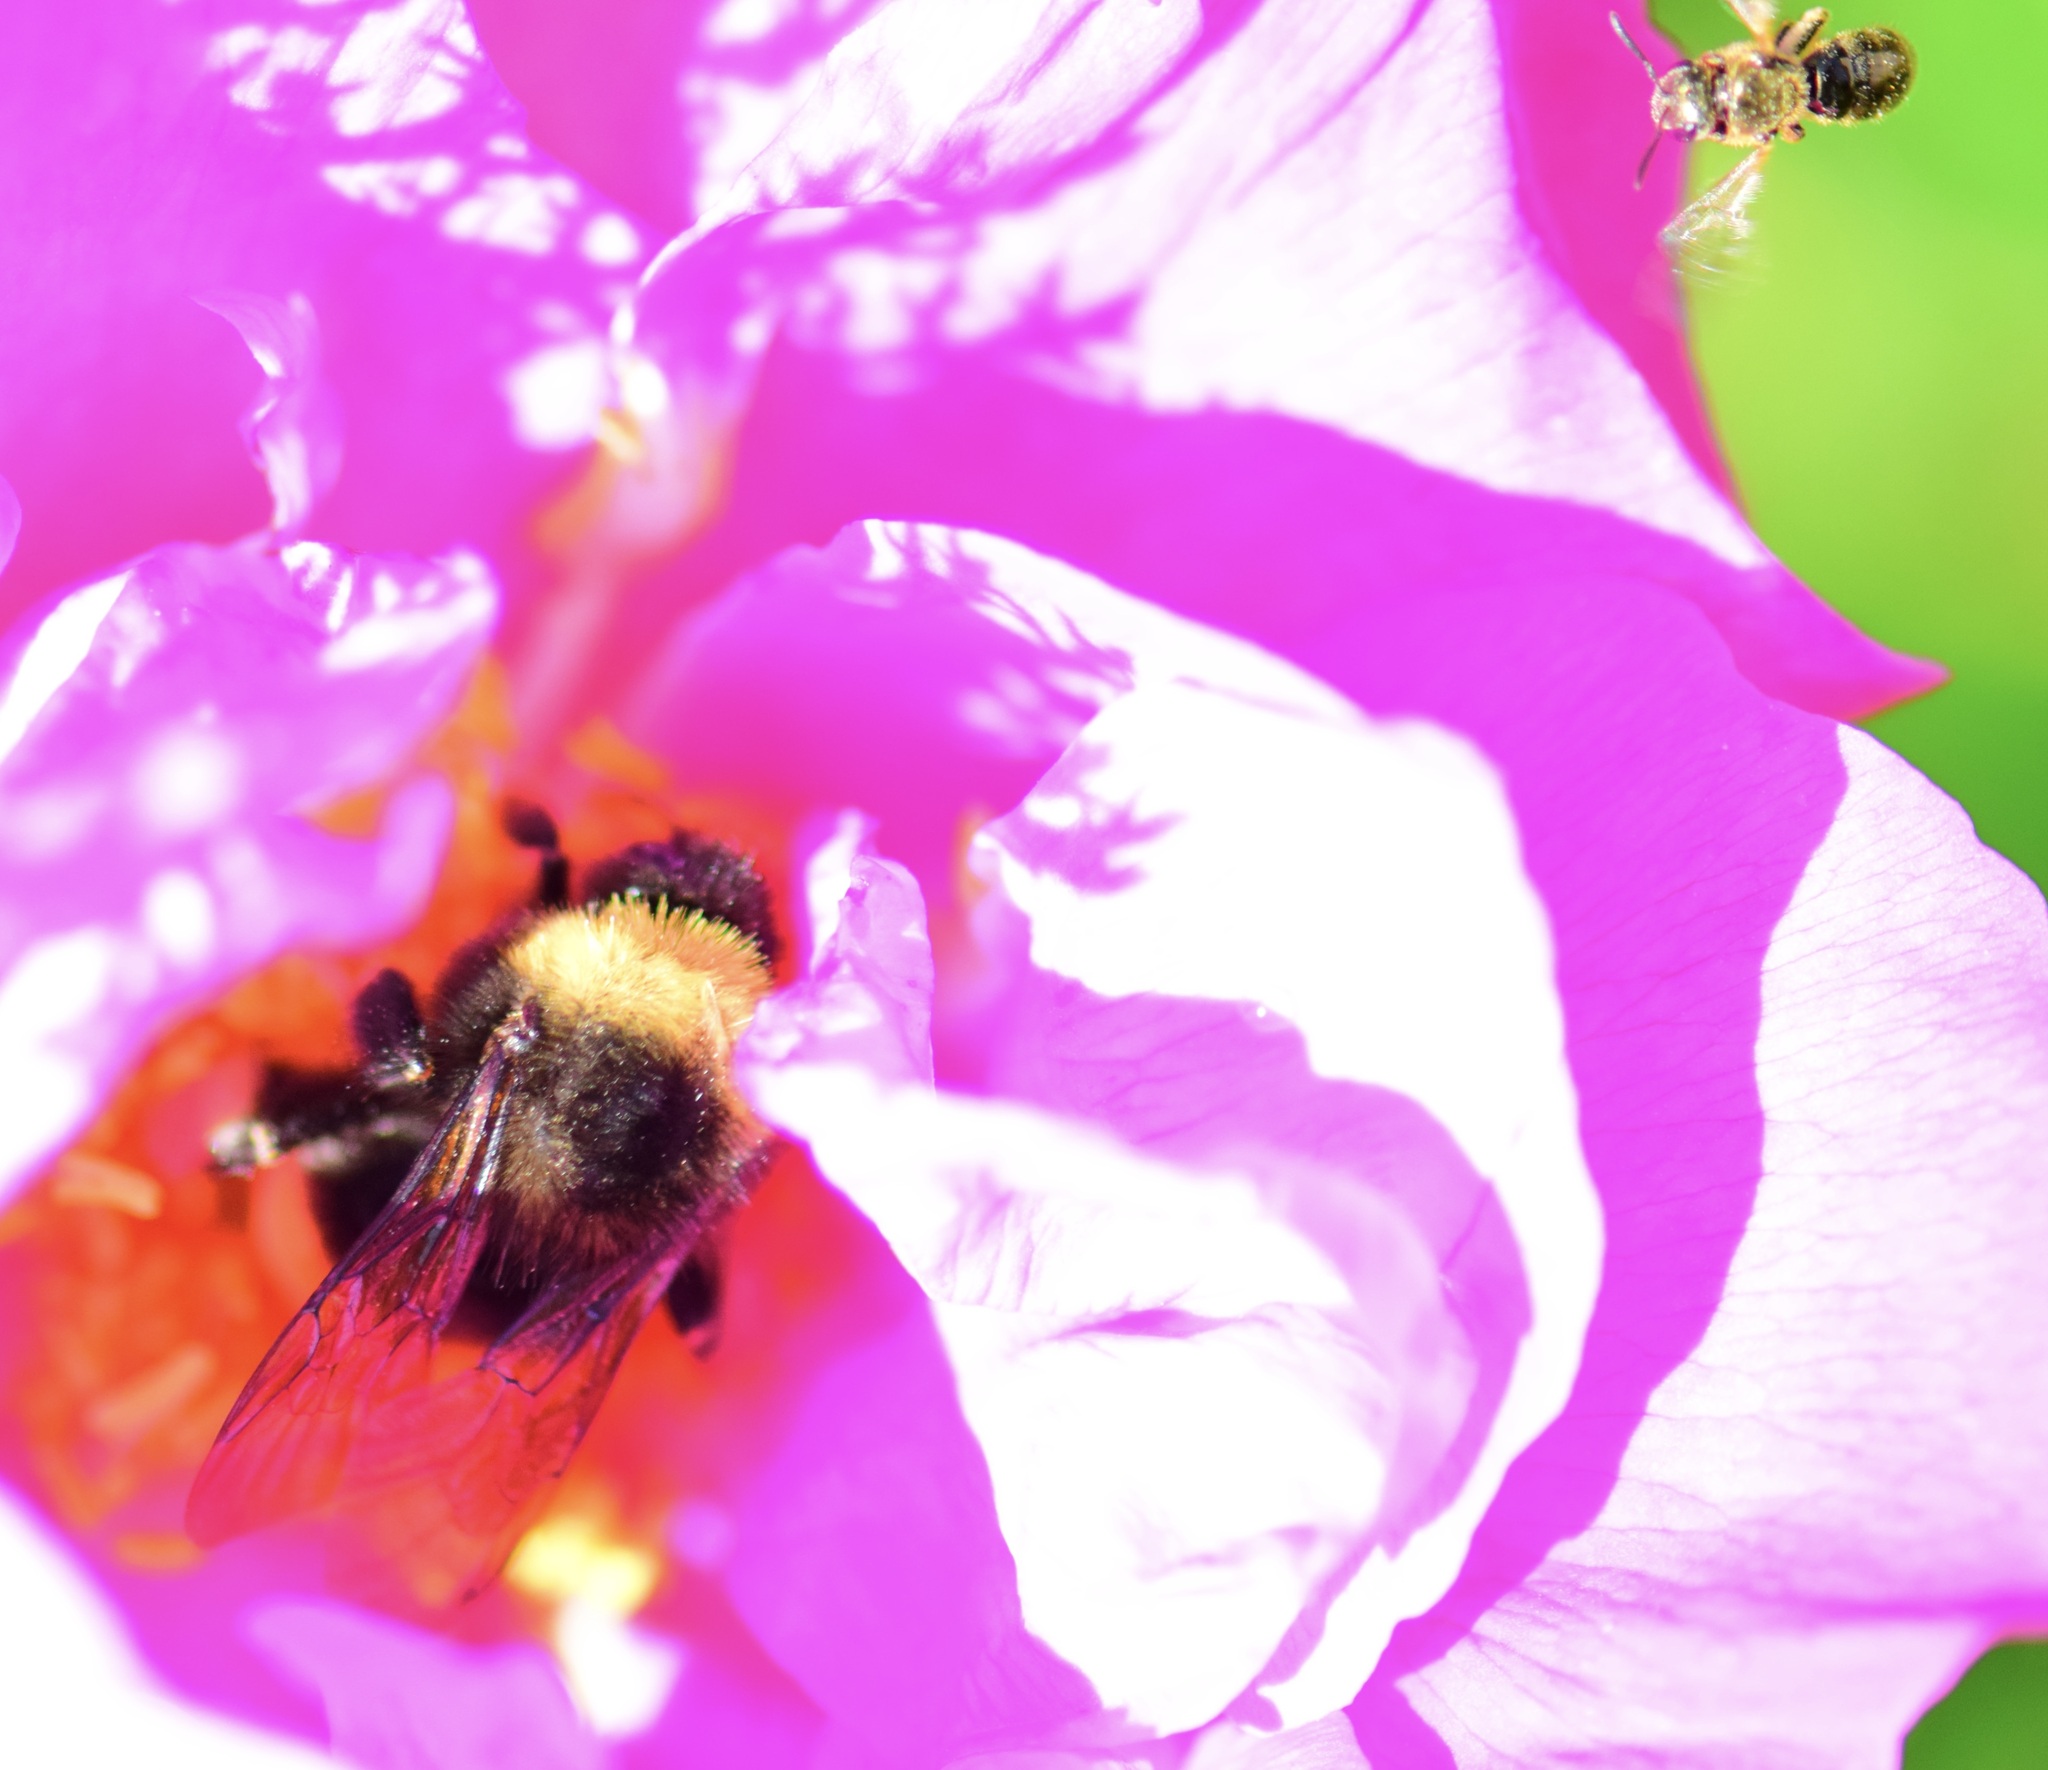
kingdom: Animalia
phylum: Arthropoda
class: Insecta
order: Hymenoptera
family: Apidae
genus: Bombus
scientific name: Bombus terricola
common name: Yellow-banded bumble bee
